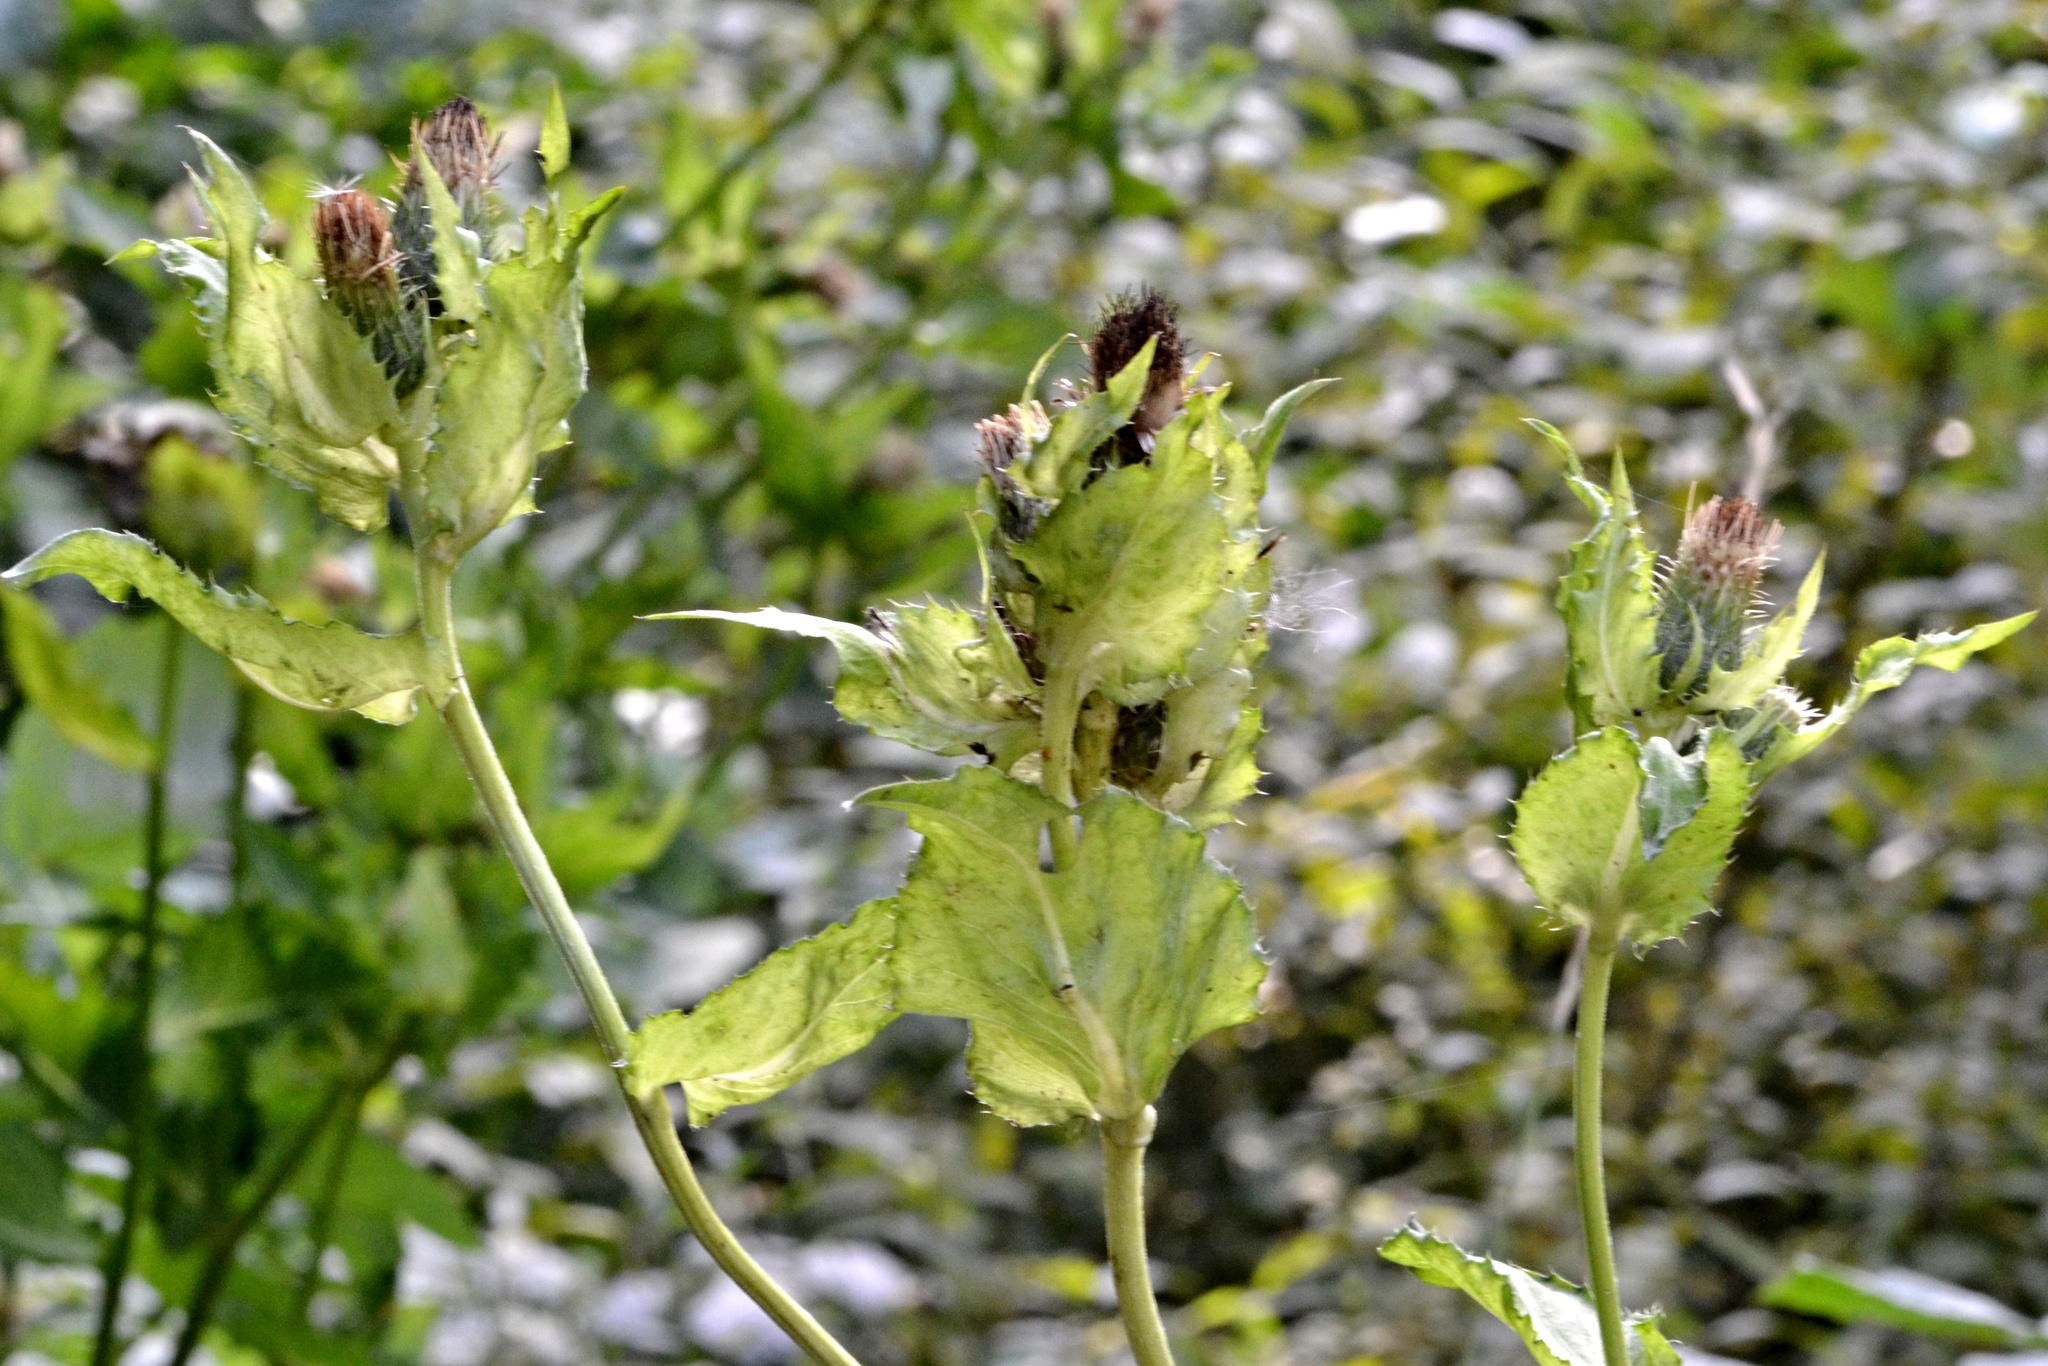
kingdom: Plantae
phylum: Tracheophyta
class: Magnoliopsida
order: Asterales
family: Asteraceae
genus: Cirsium
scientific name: Cirsium oleraceum
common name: Cabbage thistle
